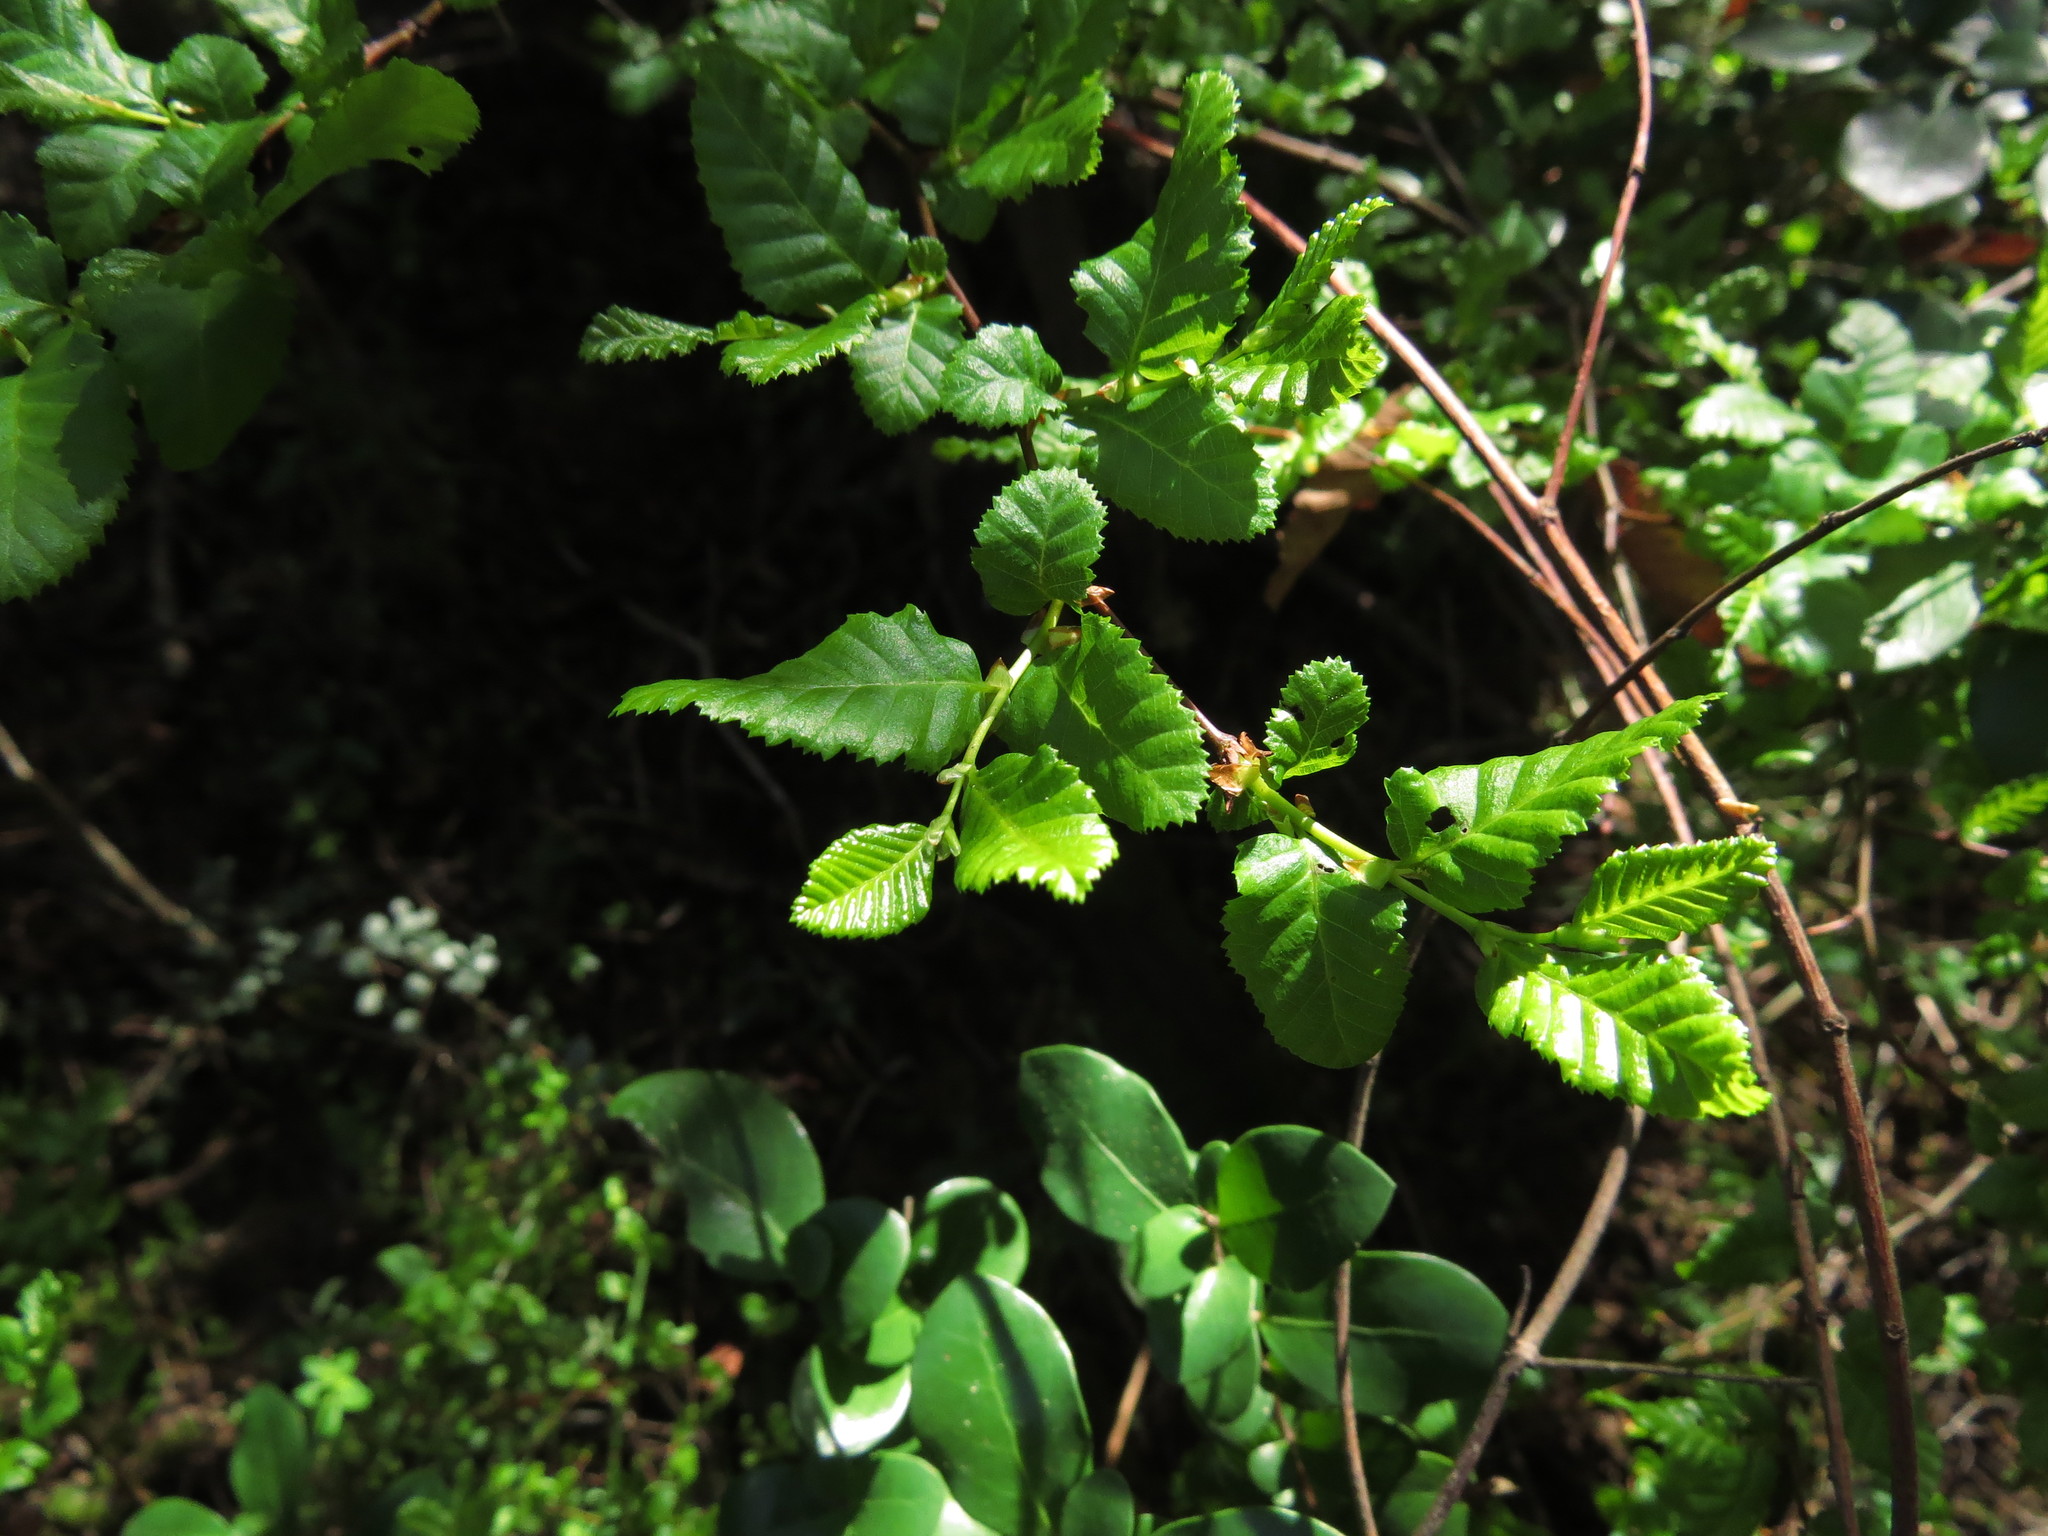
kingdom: Plantae
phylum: Tracheophyta
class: Magnoliopsida
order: Fagales
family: Nothofagaceae
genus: Nothofagus
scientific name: Nothofagus obliqua
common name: Roble beech
